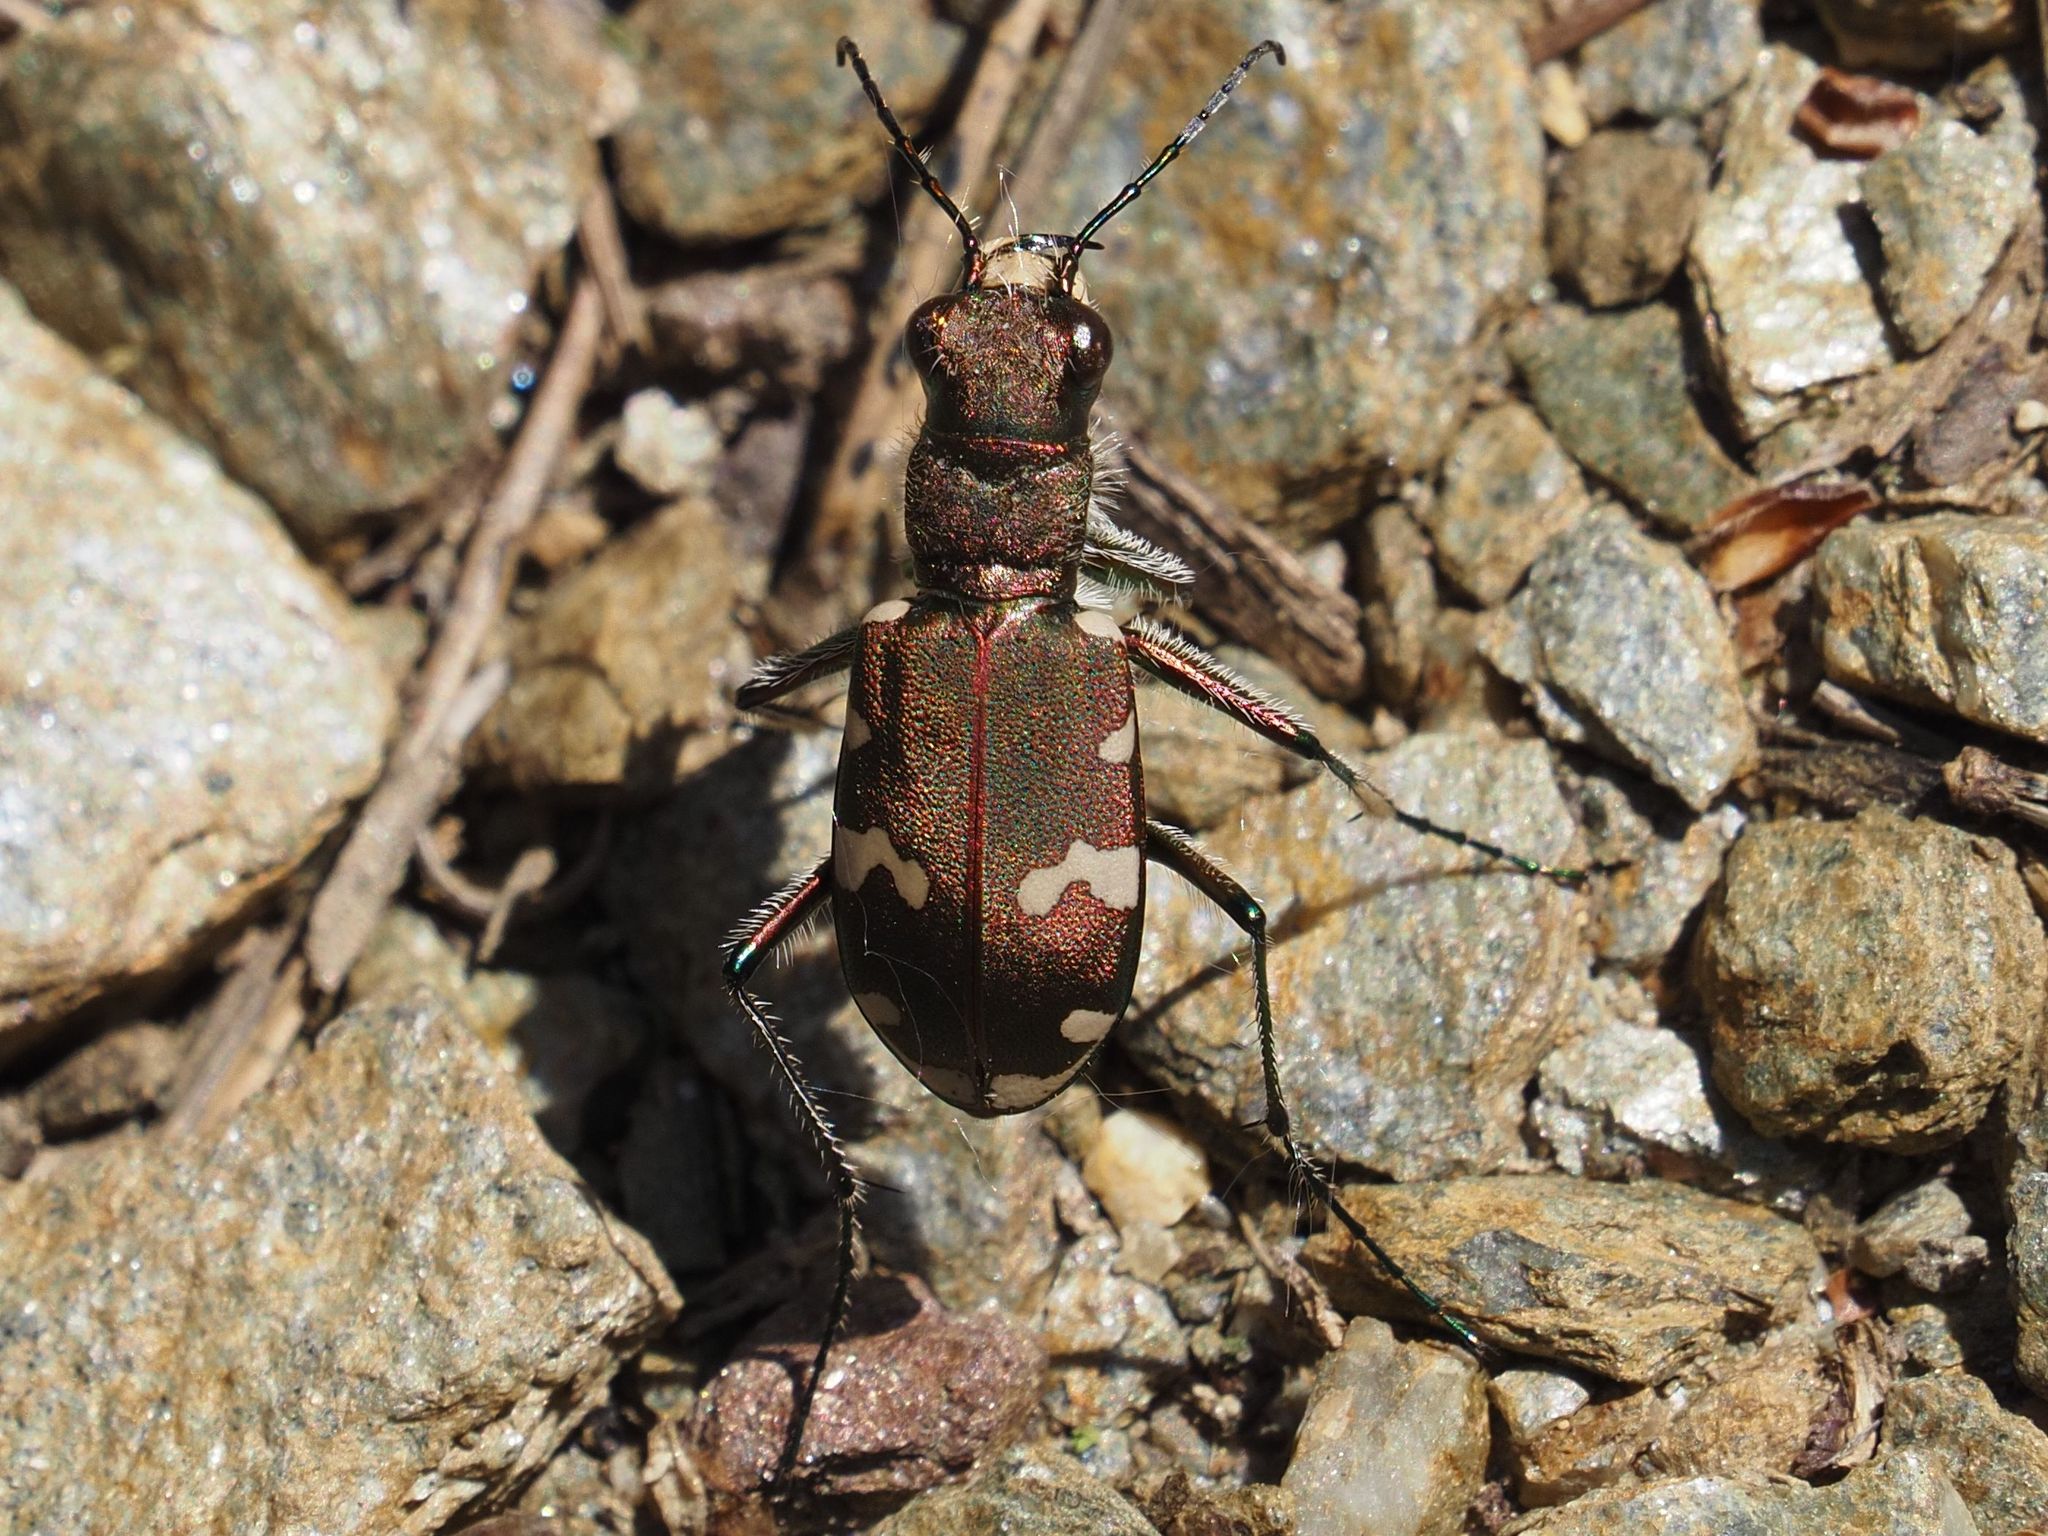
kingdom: Animalia
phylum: Arthropoda
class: Insecta
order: Coleoptera
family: Carabidae
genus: Cicindela
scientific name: Cicindela sylvicola
